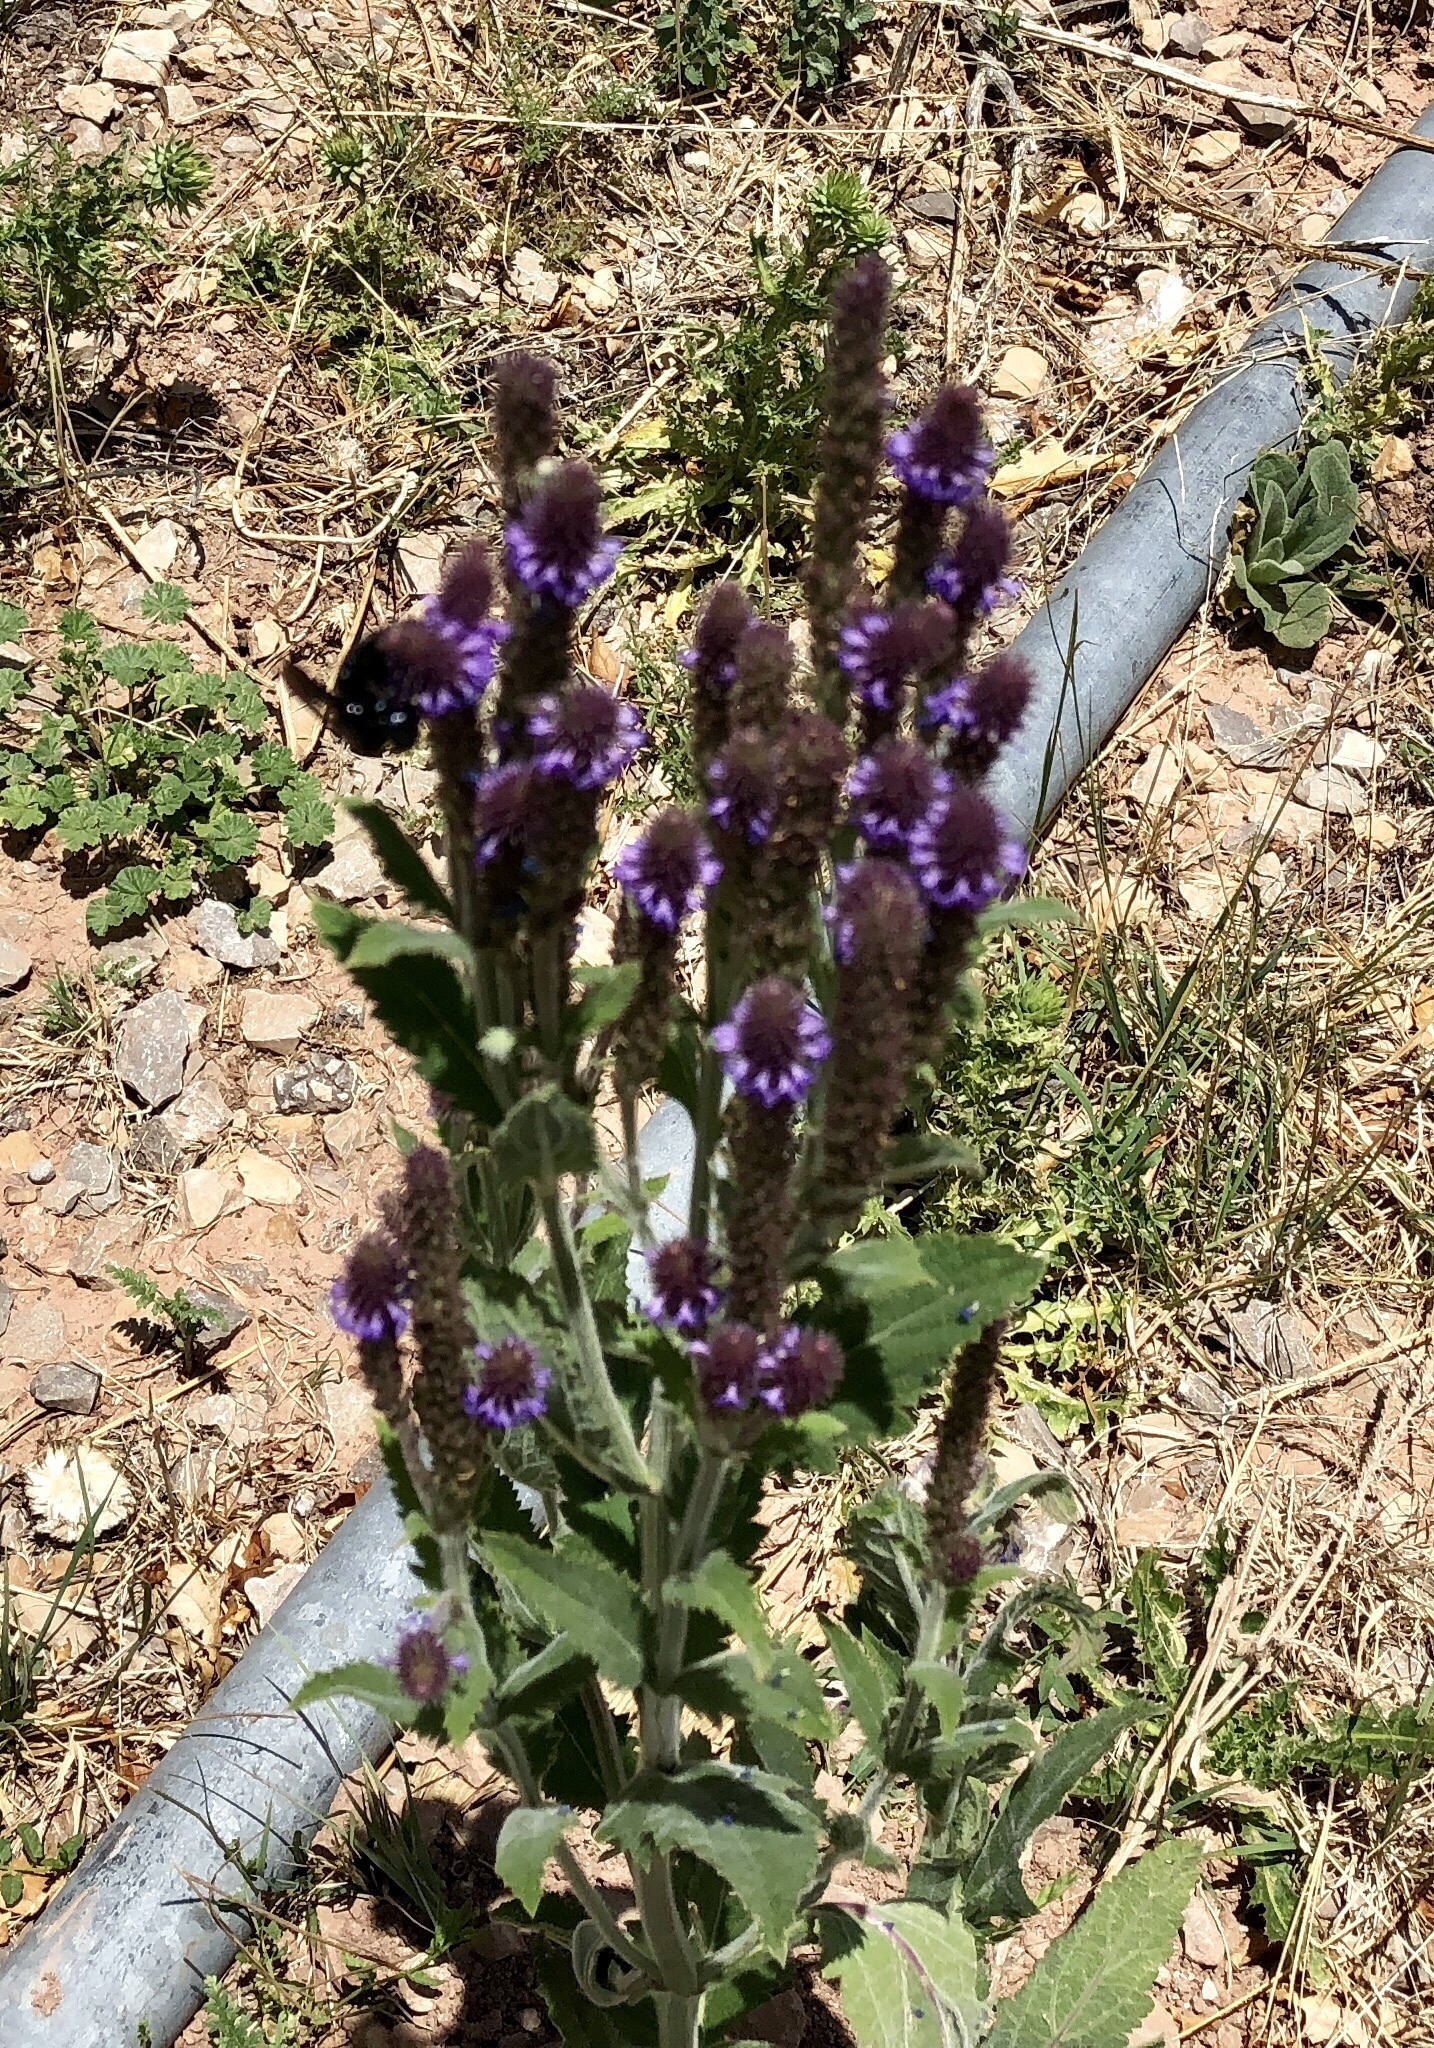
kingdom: Plantae
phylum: Tracheophyta
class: Magnoliopsida
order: Lamiales
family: Verbenaceae
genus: Verbena
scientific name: Verbena macdougalii
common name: New mexico vervain
